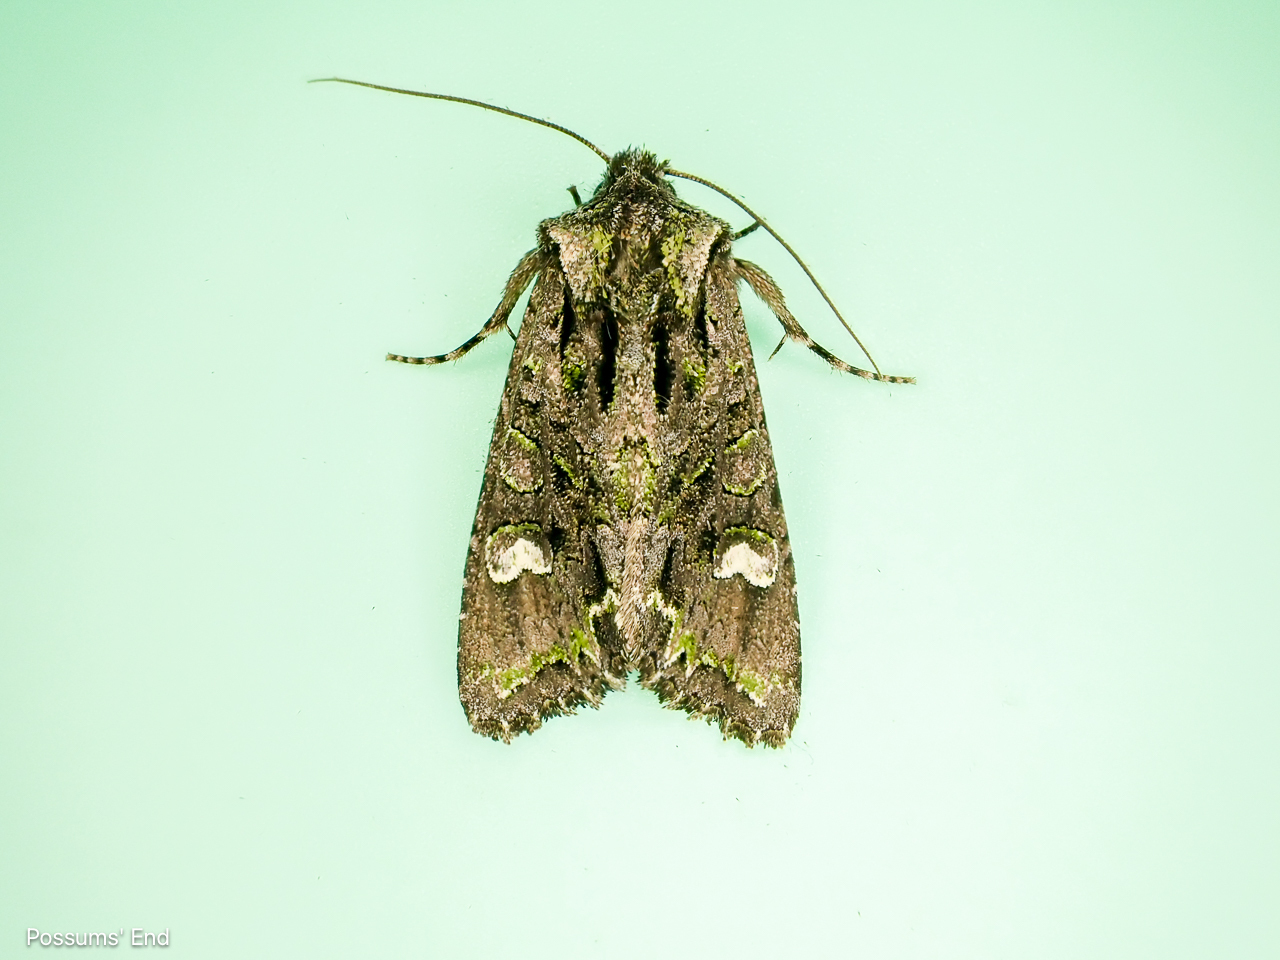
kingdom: Animalia
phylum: Arthropoda
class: Insecta
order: Lepidoptera
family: Noctuidae
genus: Ichneutica
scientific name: Ichneutica insignis
